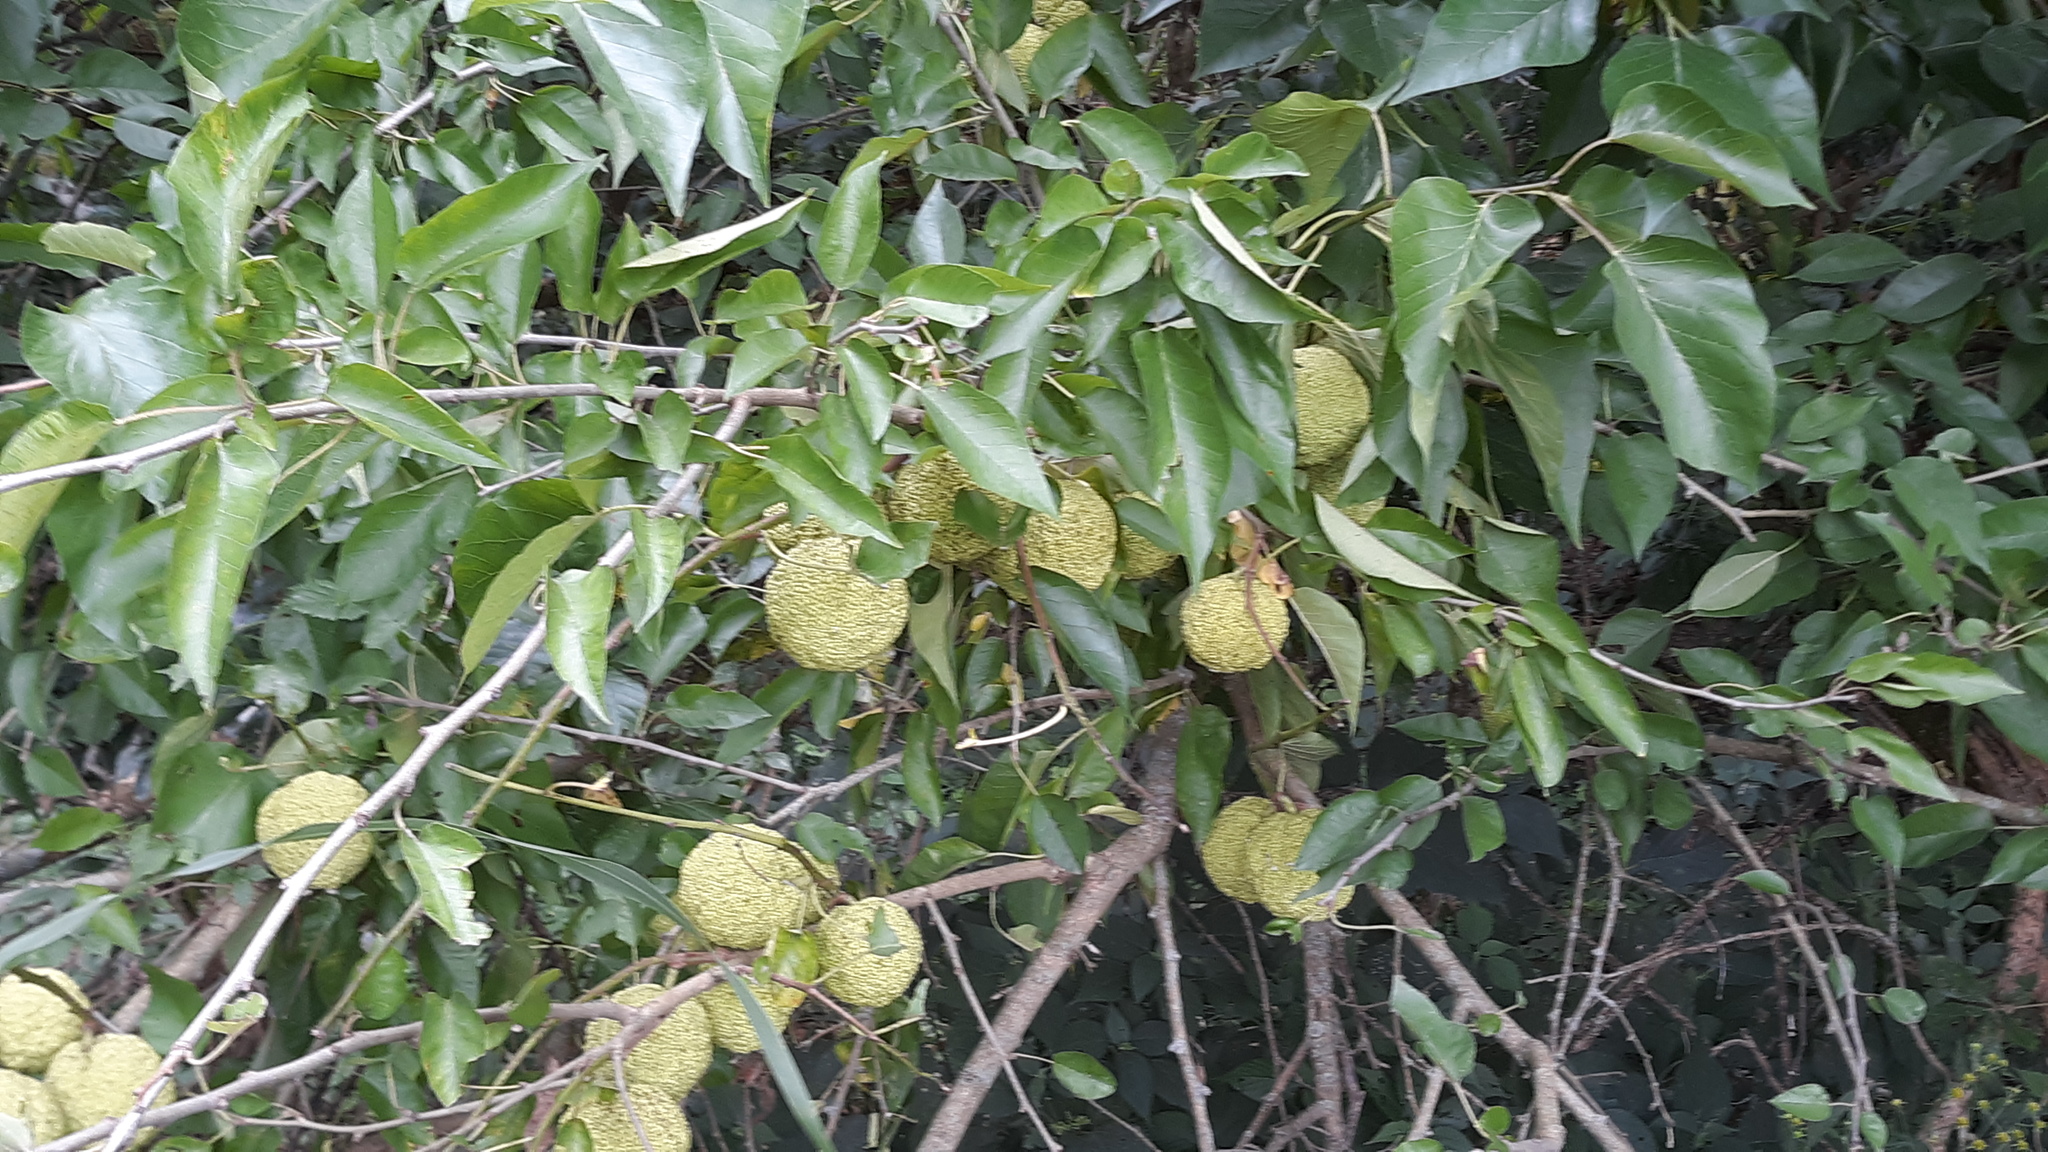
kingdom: Plantae
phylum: Tracheophyta
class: Magnoliopsida
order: Rosales
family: Moraceae
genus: Maclura
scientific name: Maclura pomifera
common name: Osage-orange
